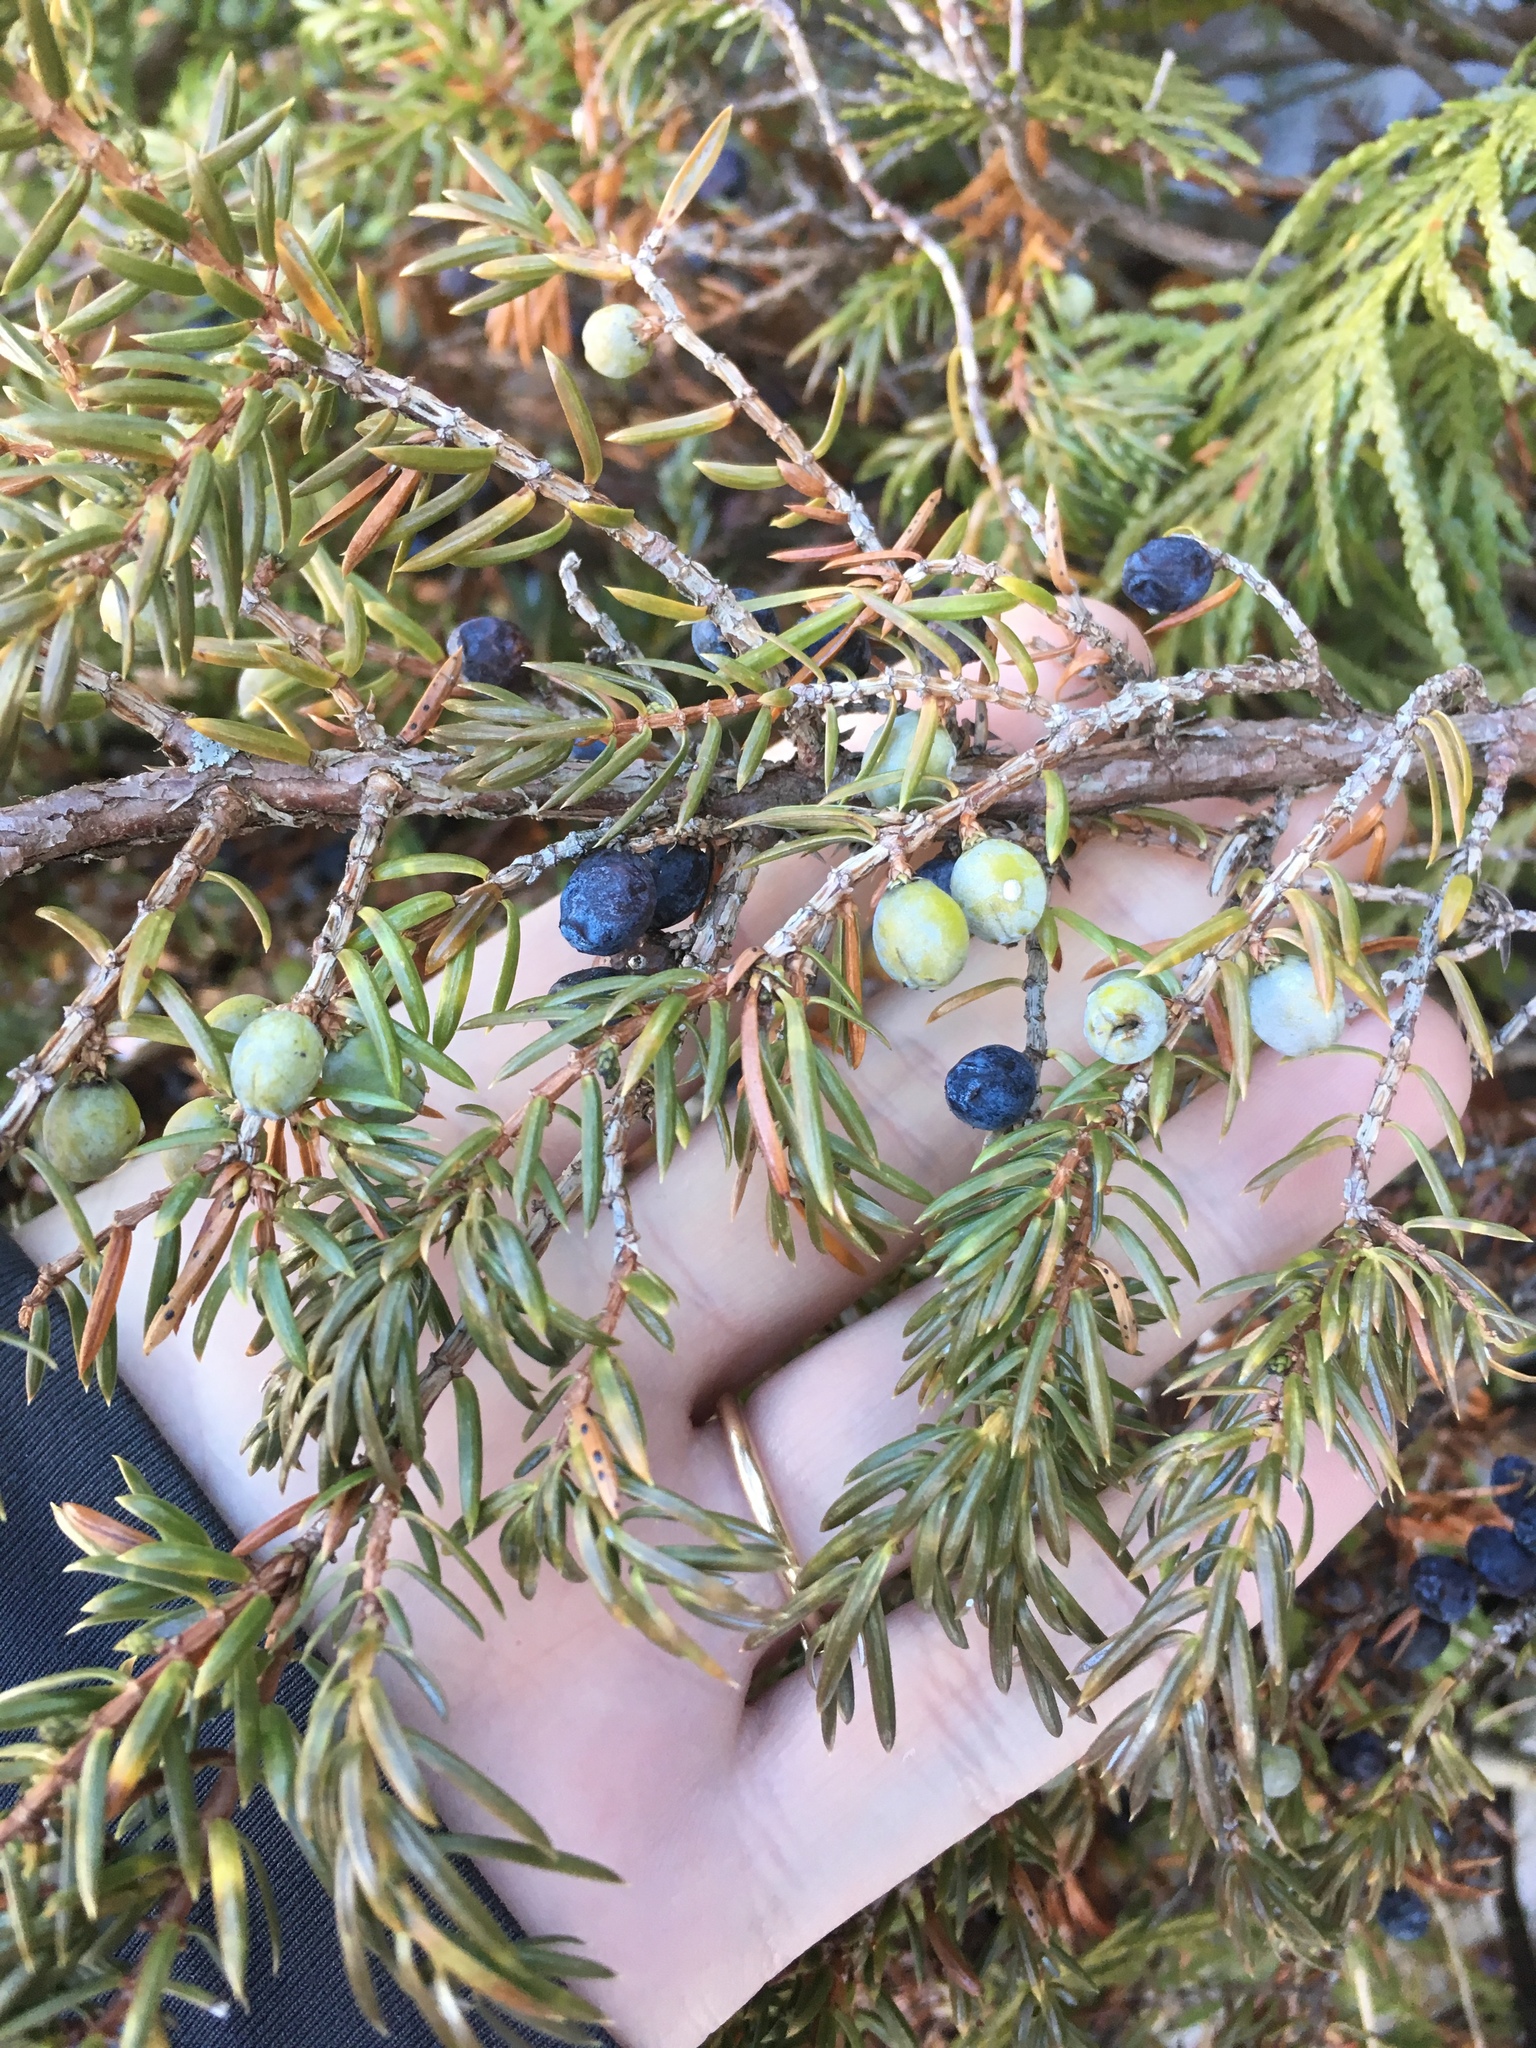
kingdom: Plantae
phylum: Tracheophyta
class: Pinopsida
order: Pinales
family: Cupressaceae
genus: Juniperus
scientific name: Juniperus communis
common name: Common juniper
